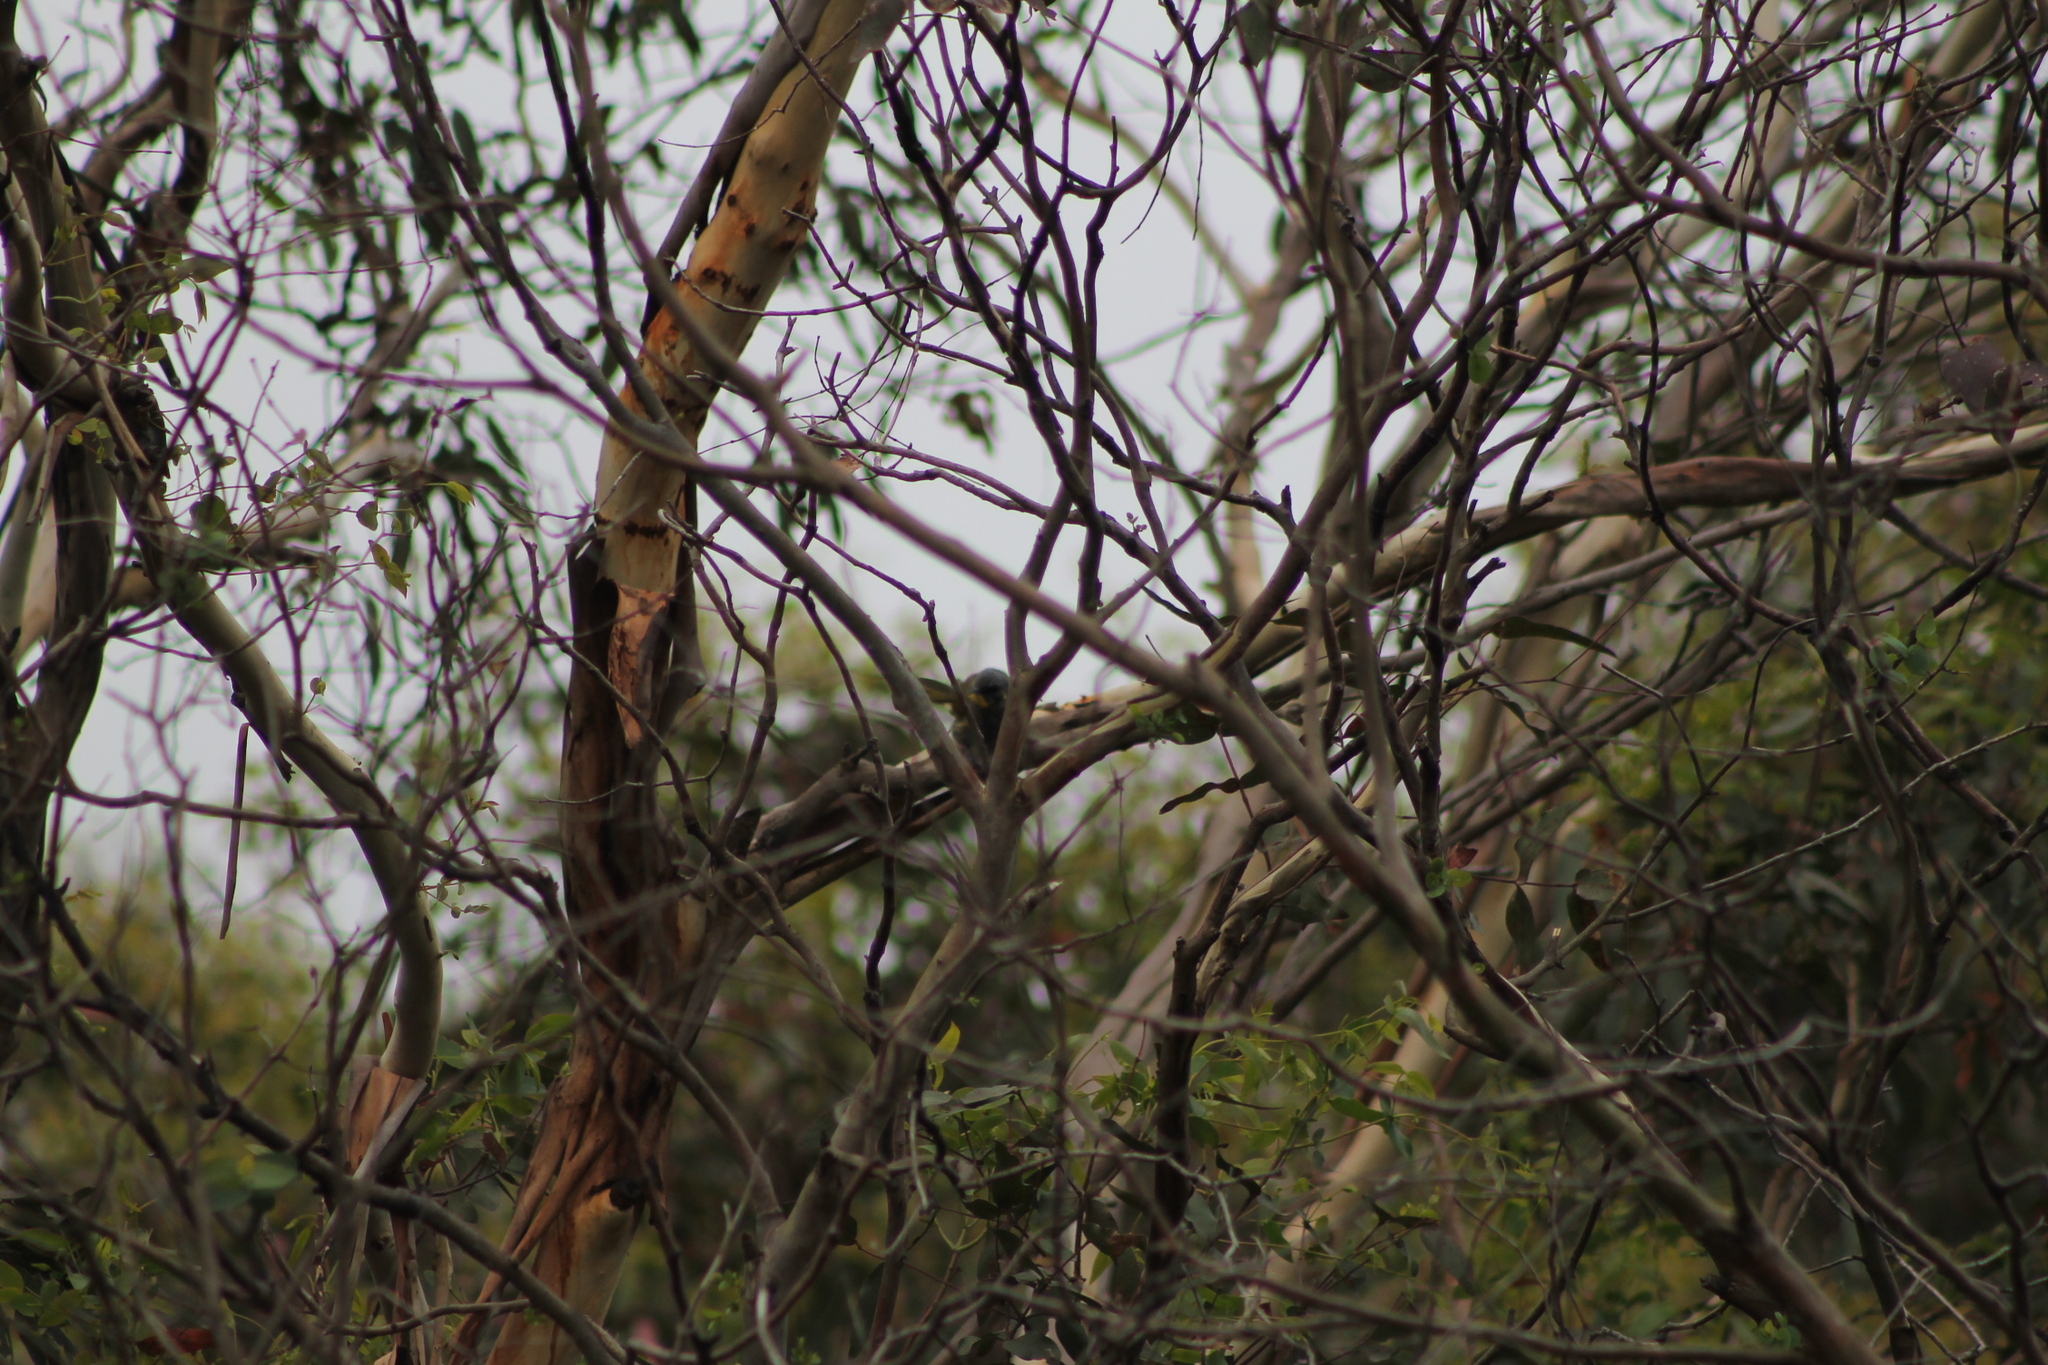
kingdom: Animalia
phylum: Chordata
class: Aves
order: Passeriformes
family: Meliphagidae
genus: Nesoptilotis
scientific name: Nesoptilotis flavicollis
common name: Yellow-throated honeyeater
